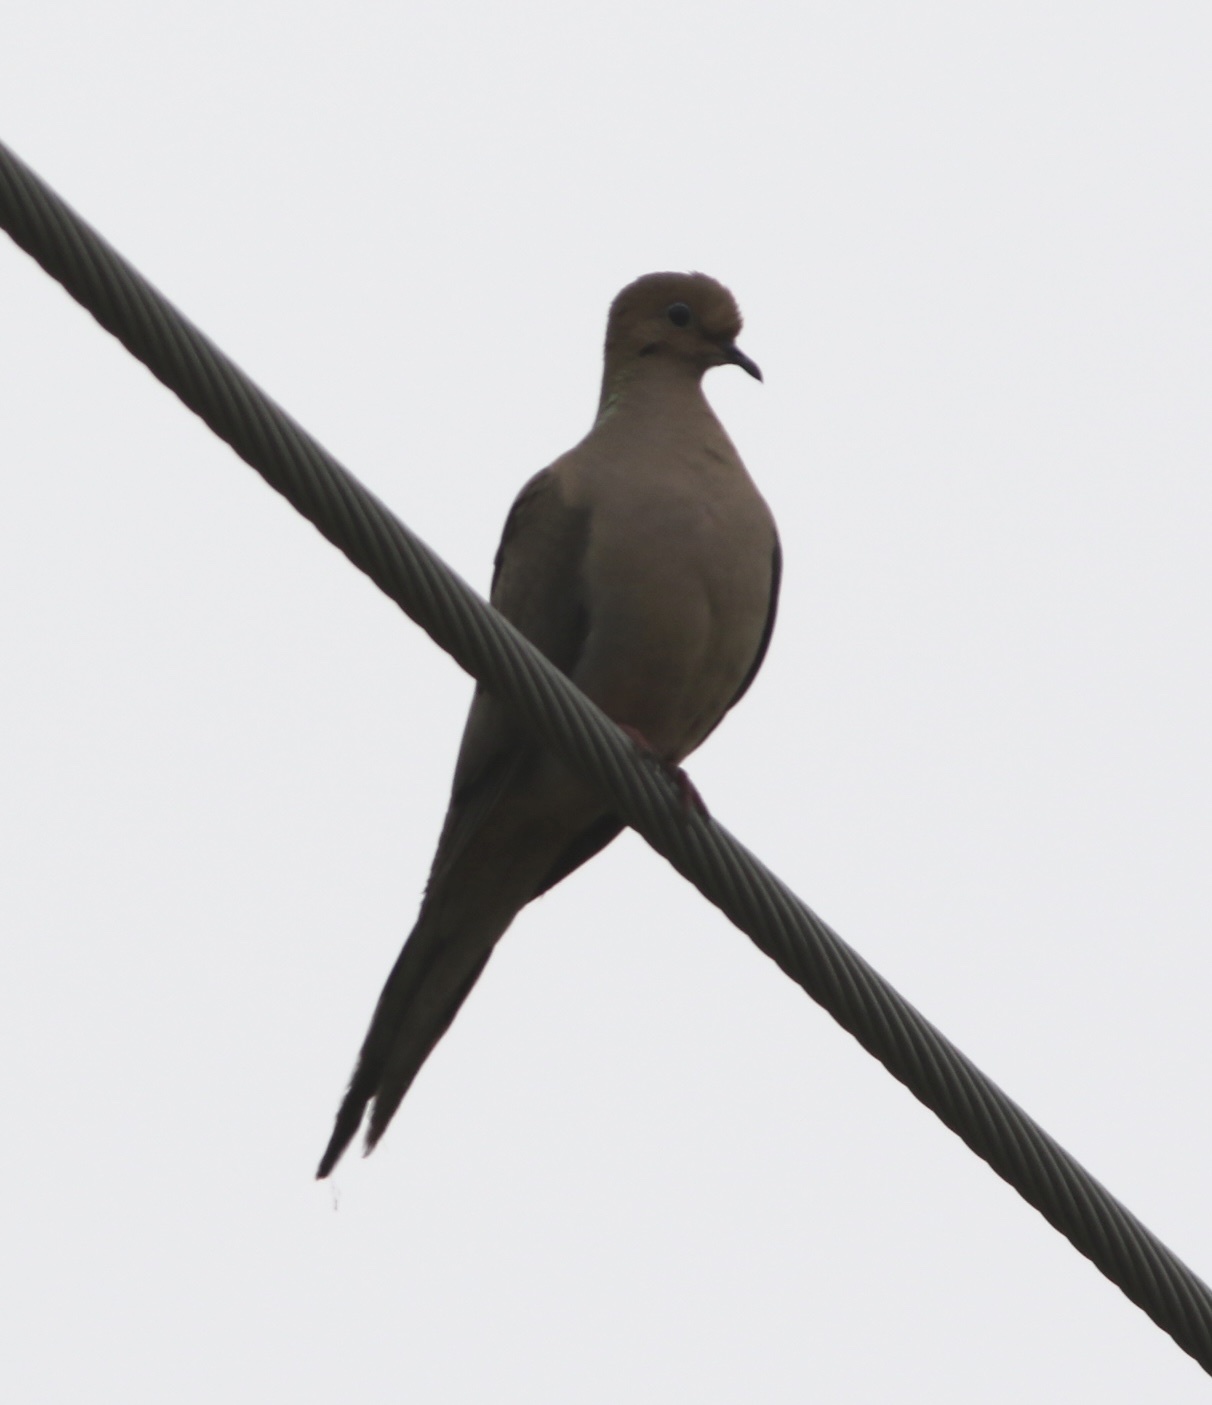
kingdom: Animalia
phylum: Chordata
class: Aves
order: Columbiformes
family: Columbidae
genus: Zenaida
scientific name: Zenaida macroura
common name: Mourning dove
